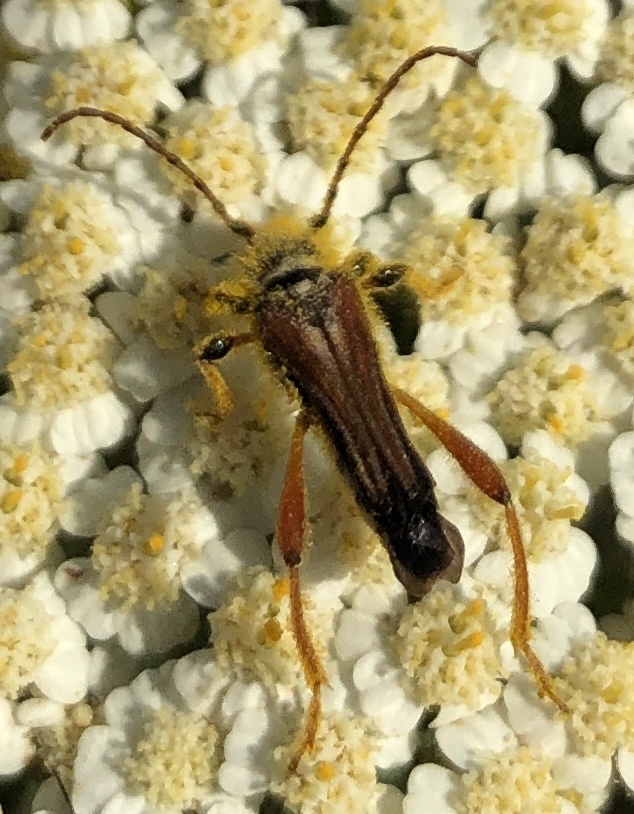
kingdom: Animalia
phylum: Arthropoda
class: Insecta
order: Coleoptera
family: Cerambycidae
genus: Stenopterus
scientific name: Stenopterus rufus
